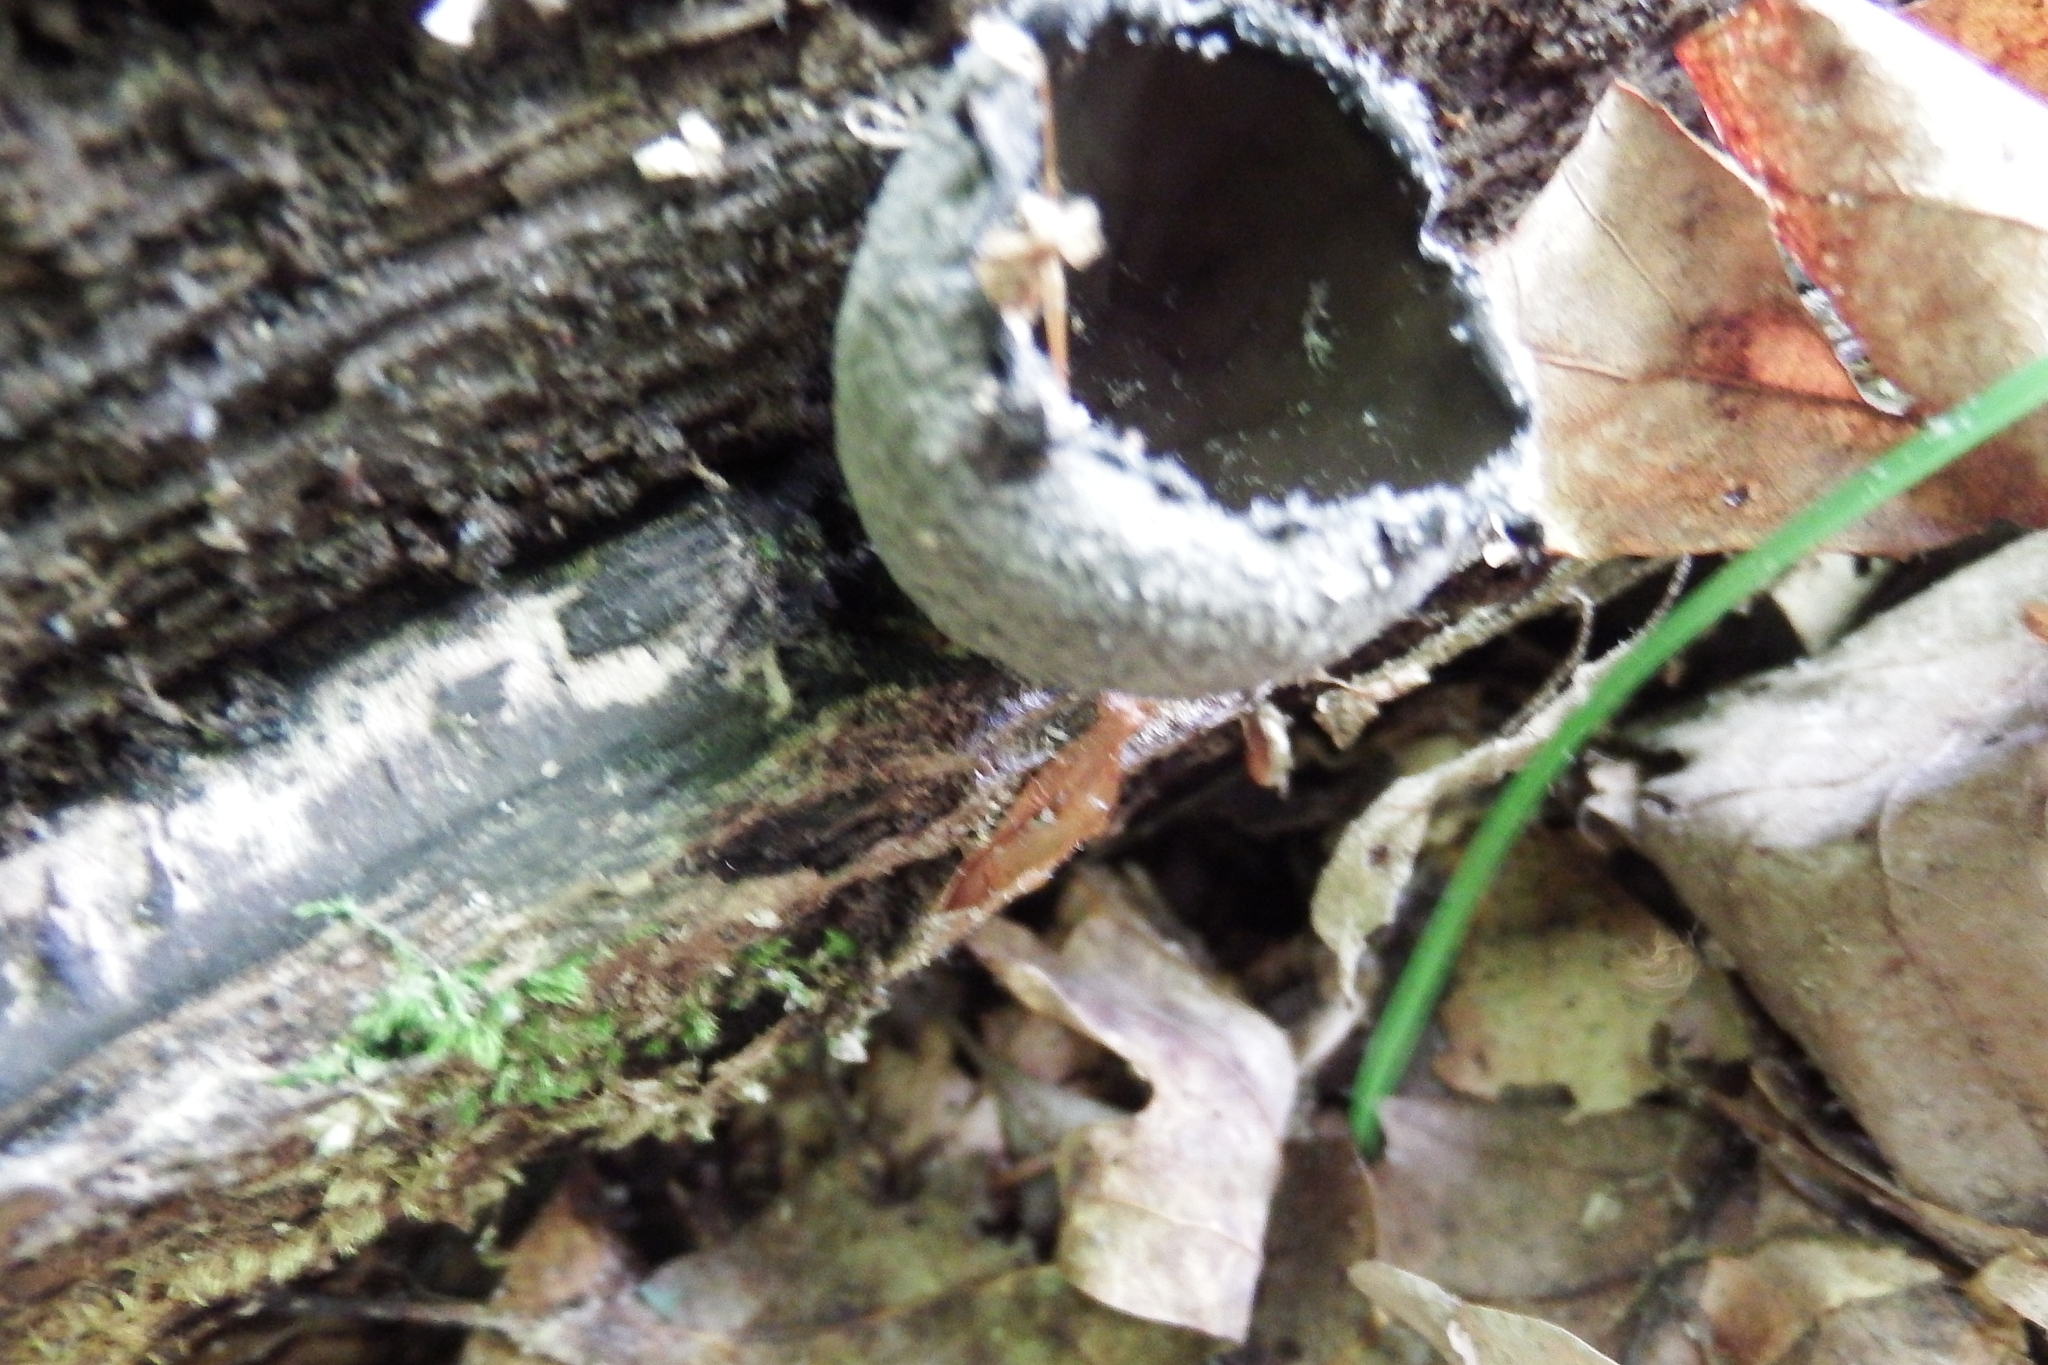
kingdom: Fungi
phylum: Ascomycota
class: Pezizomycetes
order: Pezizales
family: Sarcosomataceae
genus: Urnula
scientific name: Urnula craterium
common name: Devil's urn
